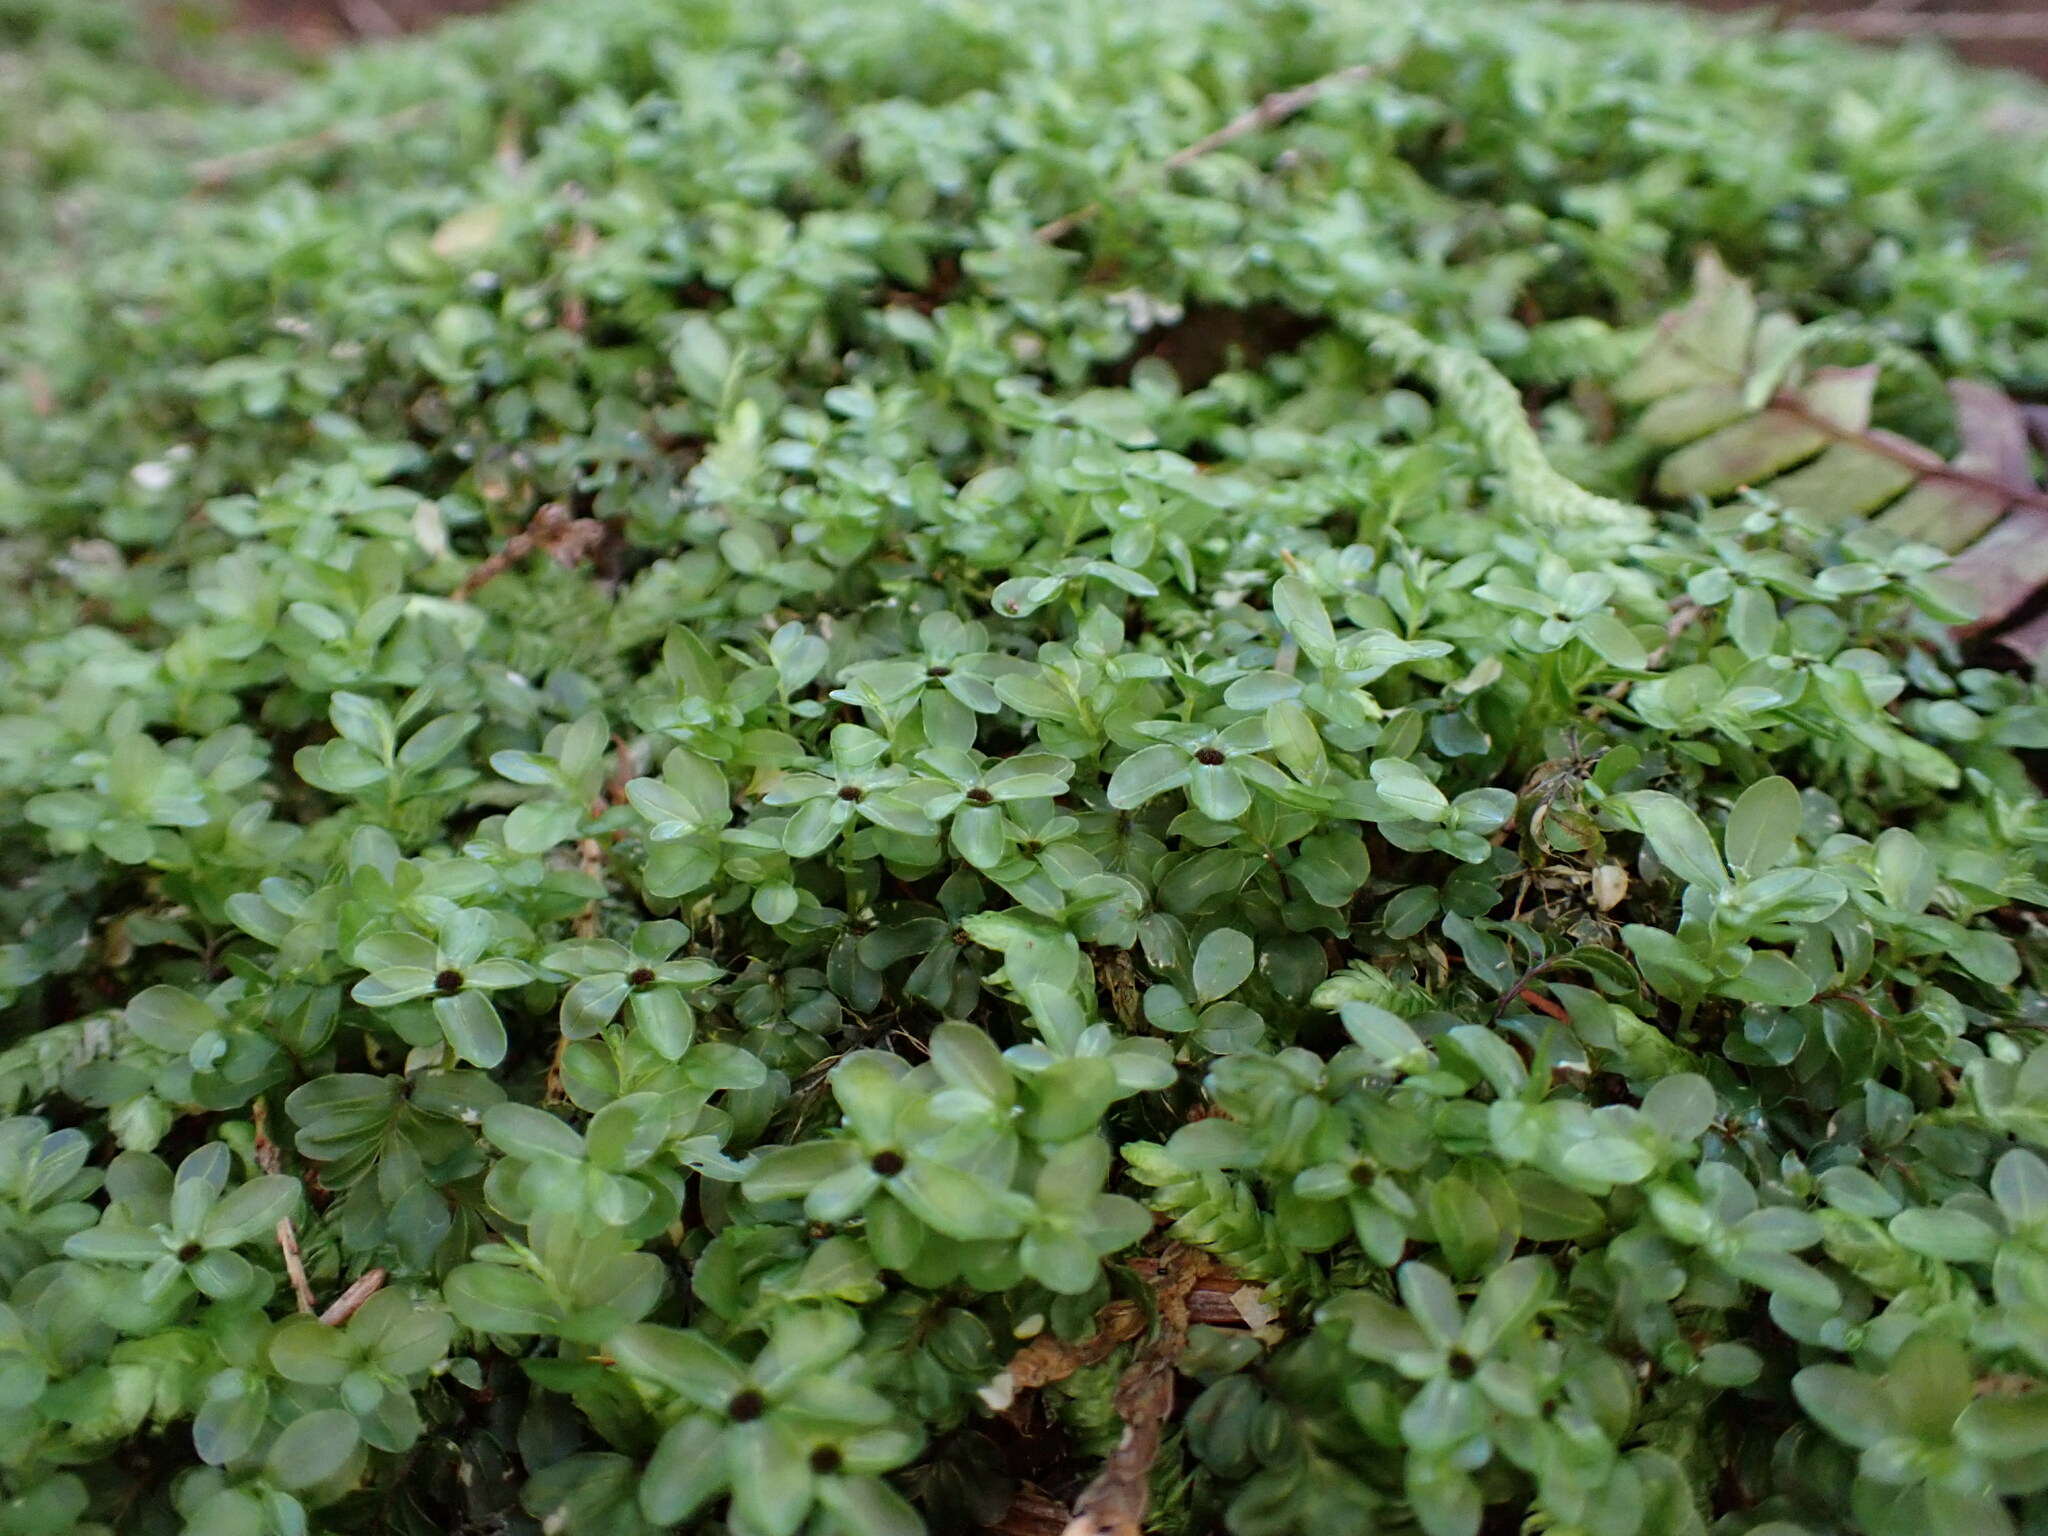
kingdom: Plantae
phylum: Bryophyta
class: Bryopsida
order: Bryales
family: Mniaceae
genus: Rhizomnium
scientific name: Rhizomnium glabrescens
